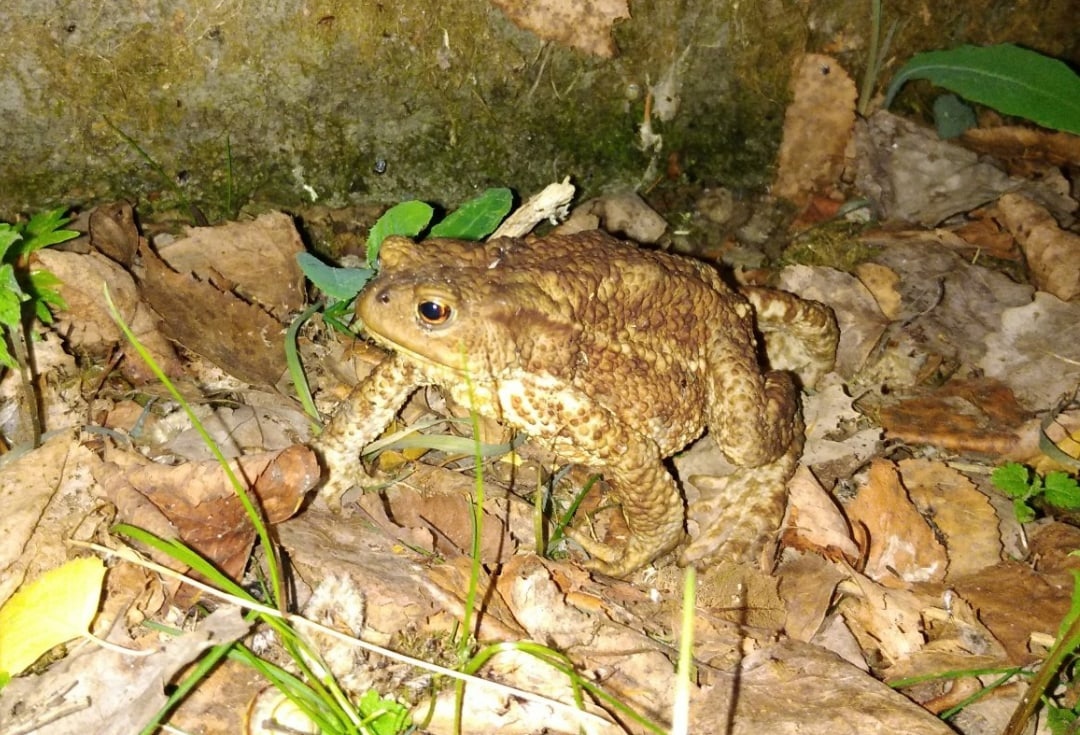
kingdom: Animalia
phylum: Chordata
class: Amphibia
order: Anura
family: Bufonidae
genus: Bufo
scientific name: Bufo bufo
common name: Common toad
